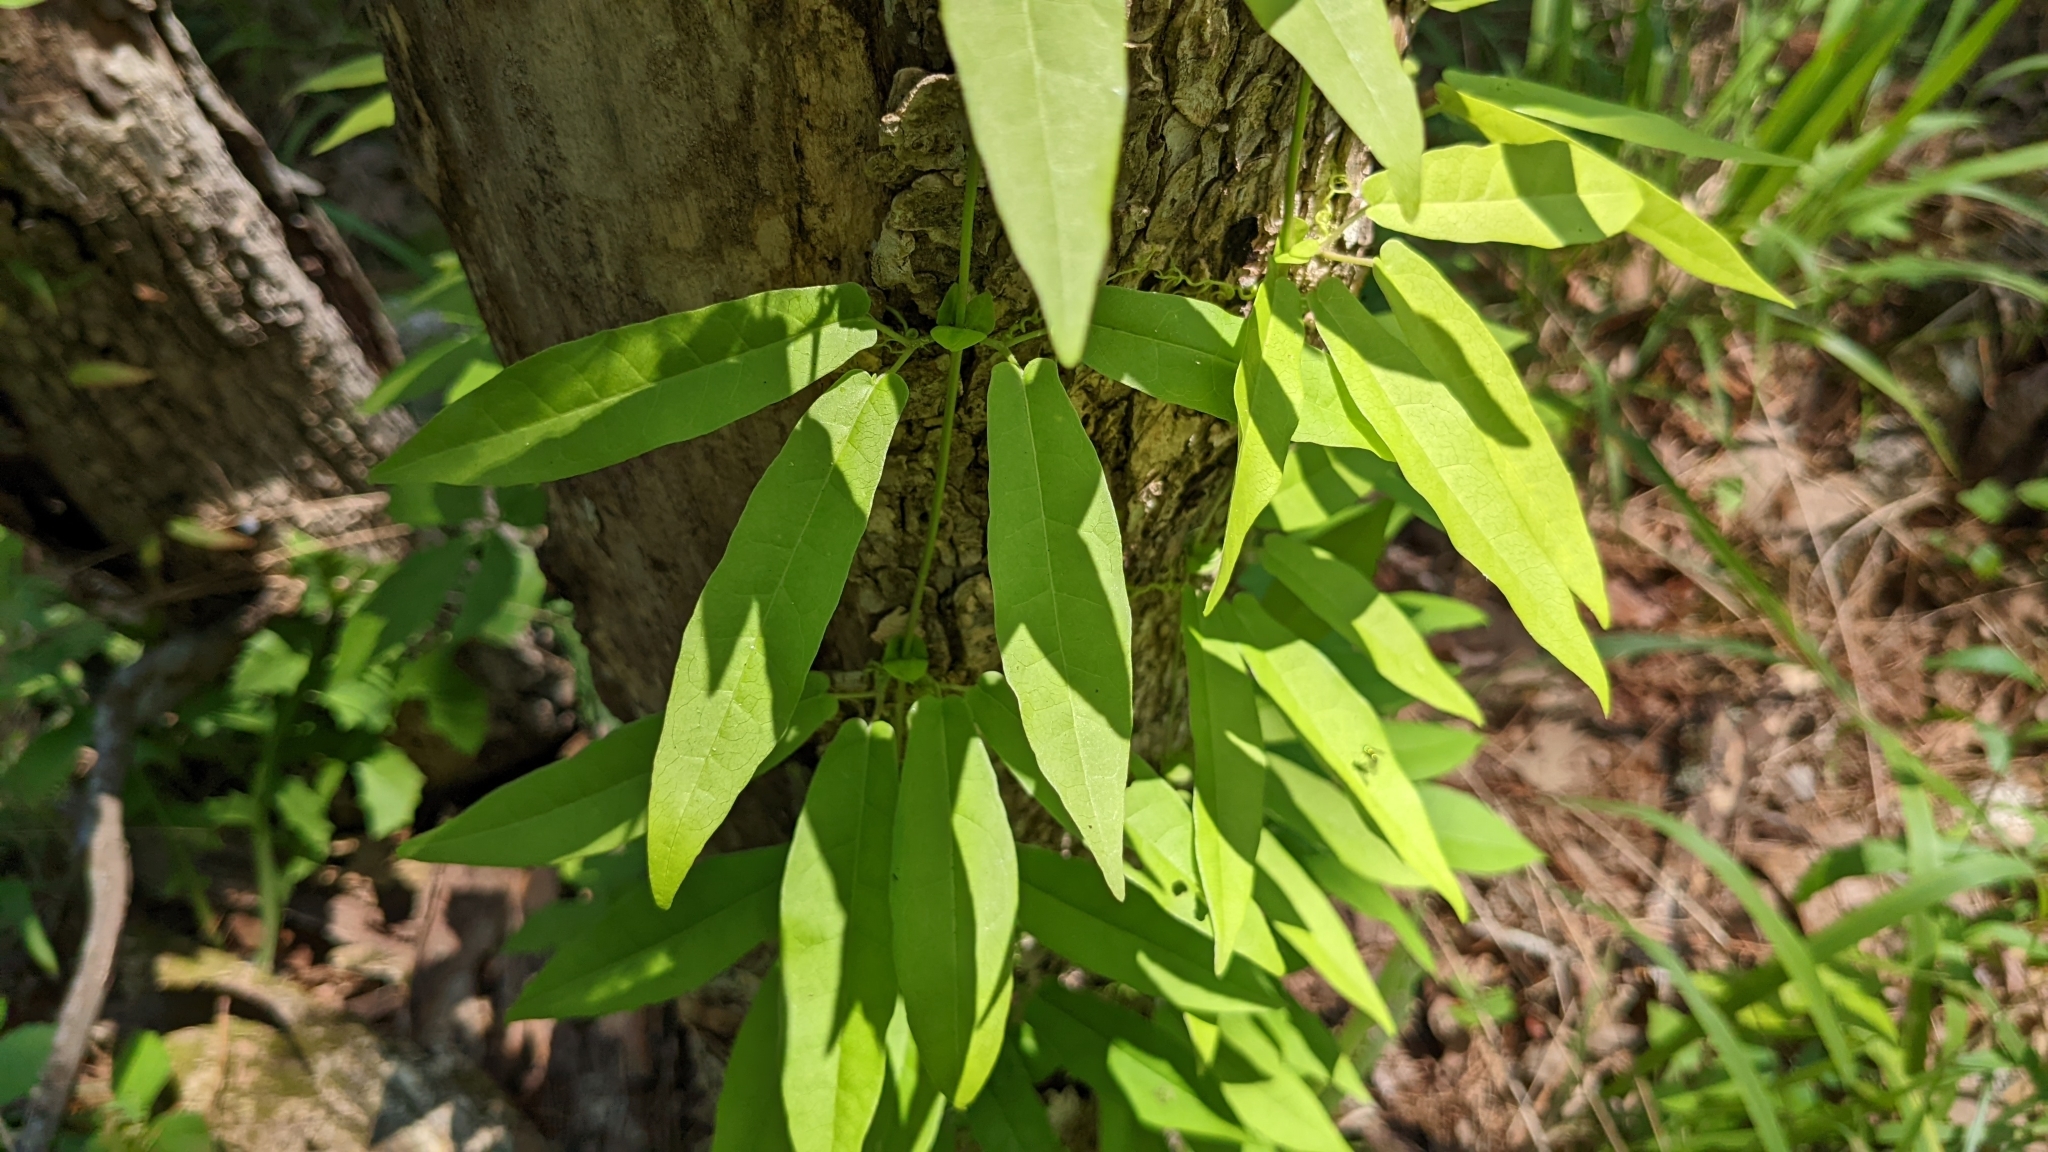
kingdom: Plantae
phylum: Tracheophyta
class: Magnoliopsida
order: Lamiales
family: Bignoniaceae
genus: Bignonia
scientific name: Bignonia capreolata
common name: Crossvine
